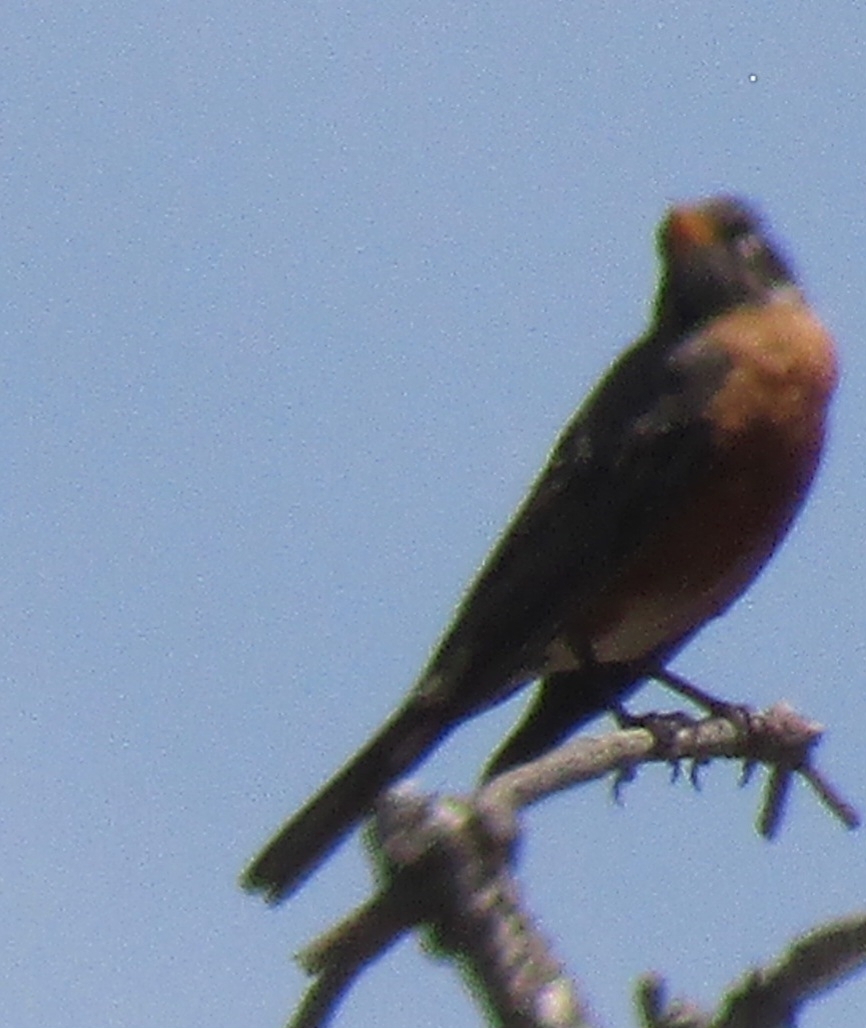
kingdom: Animalia
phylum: Chordata
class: Aves
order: Passeriformes
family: Turdidae
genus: Turdus
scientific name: Turdus migratorius
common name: American robin
